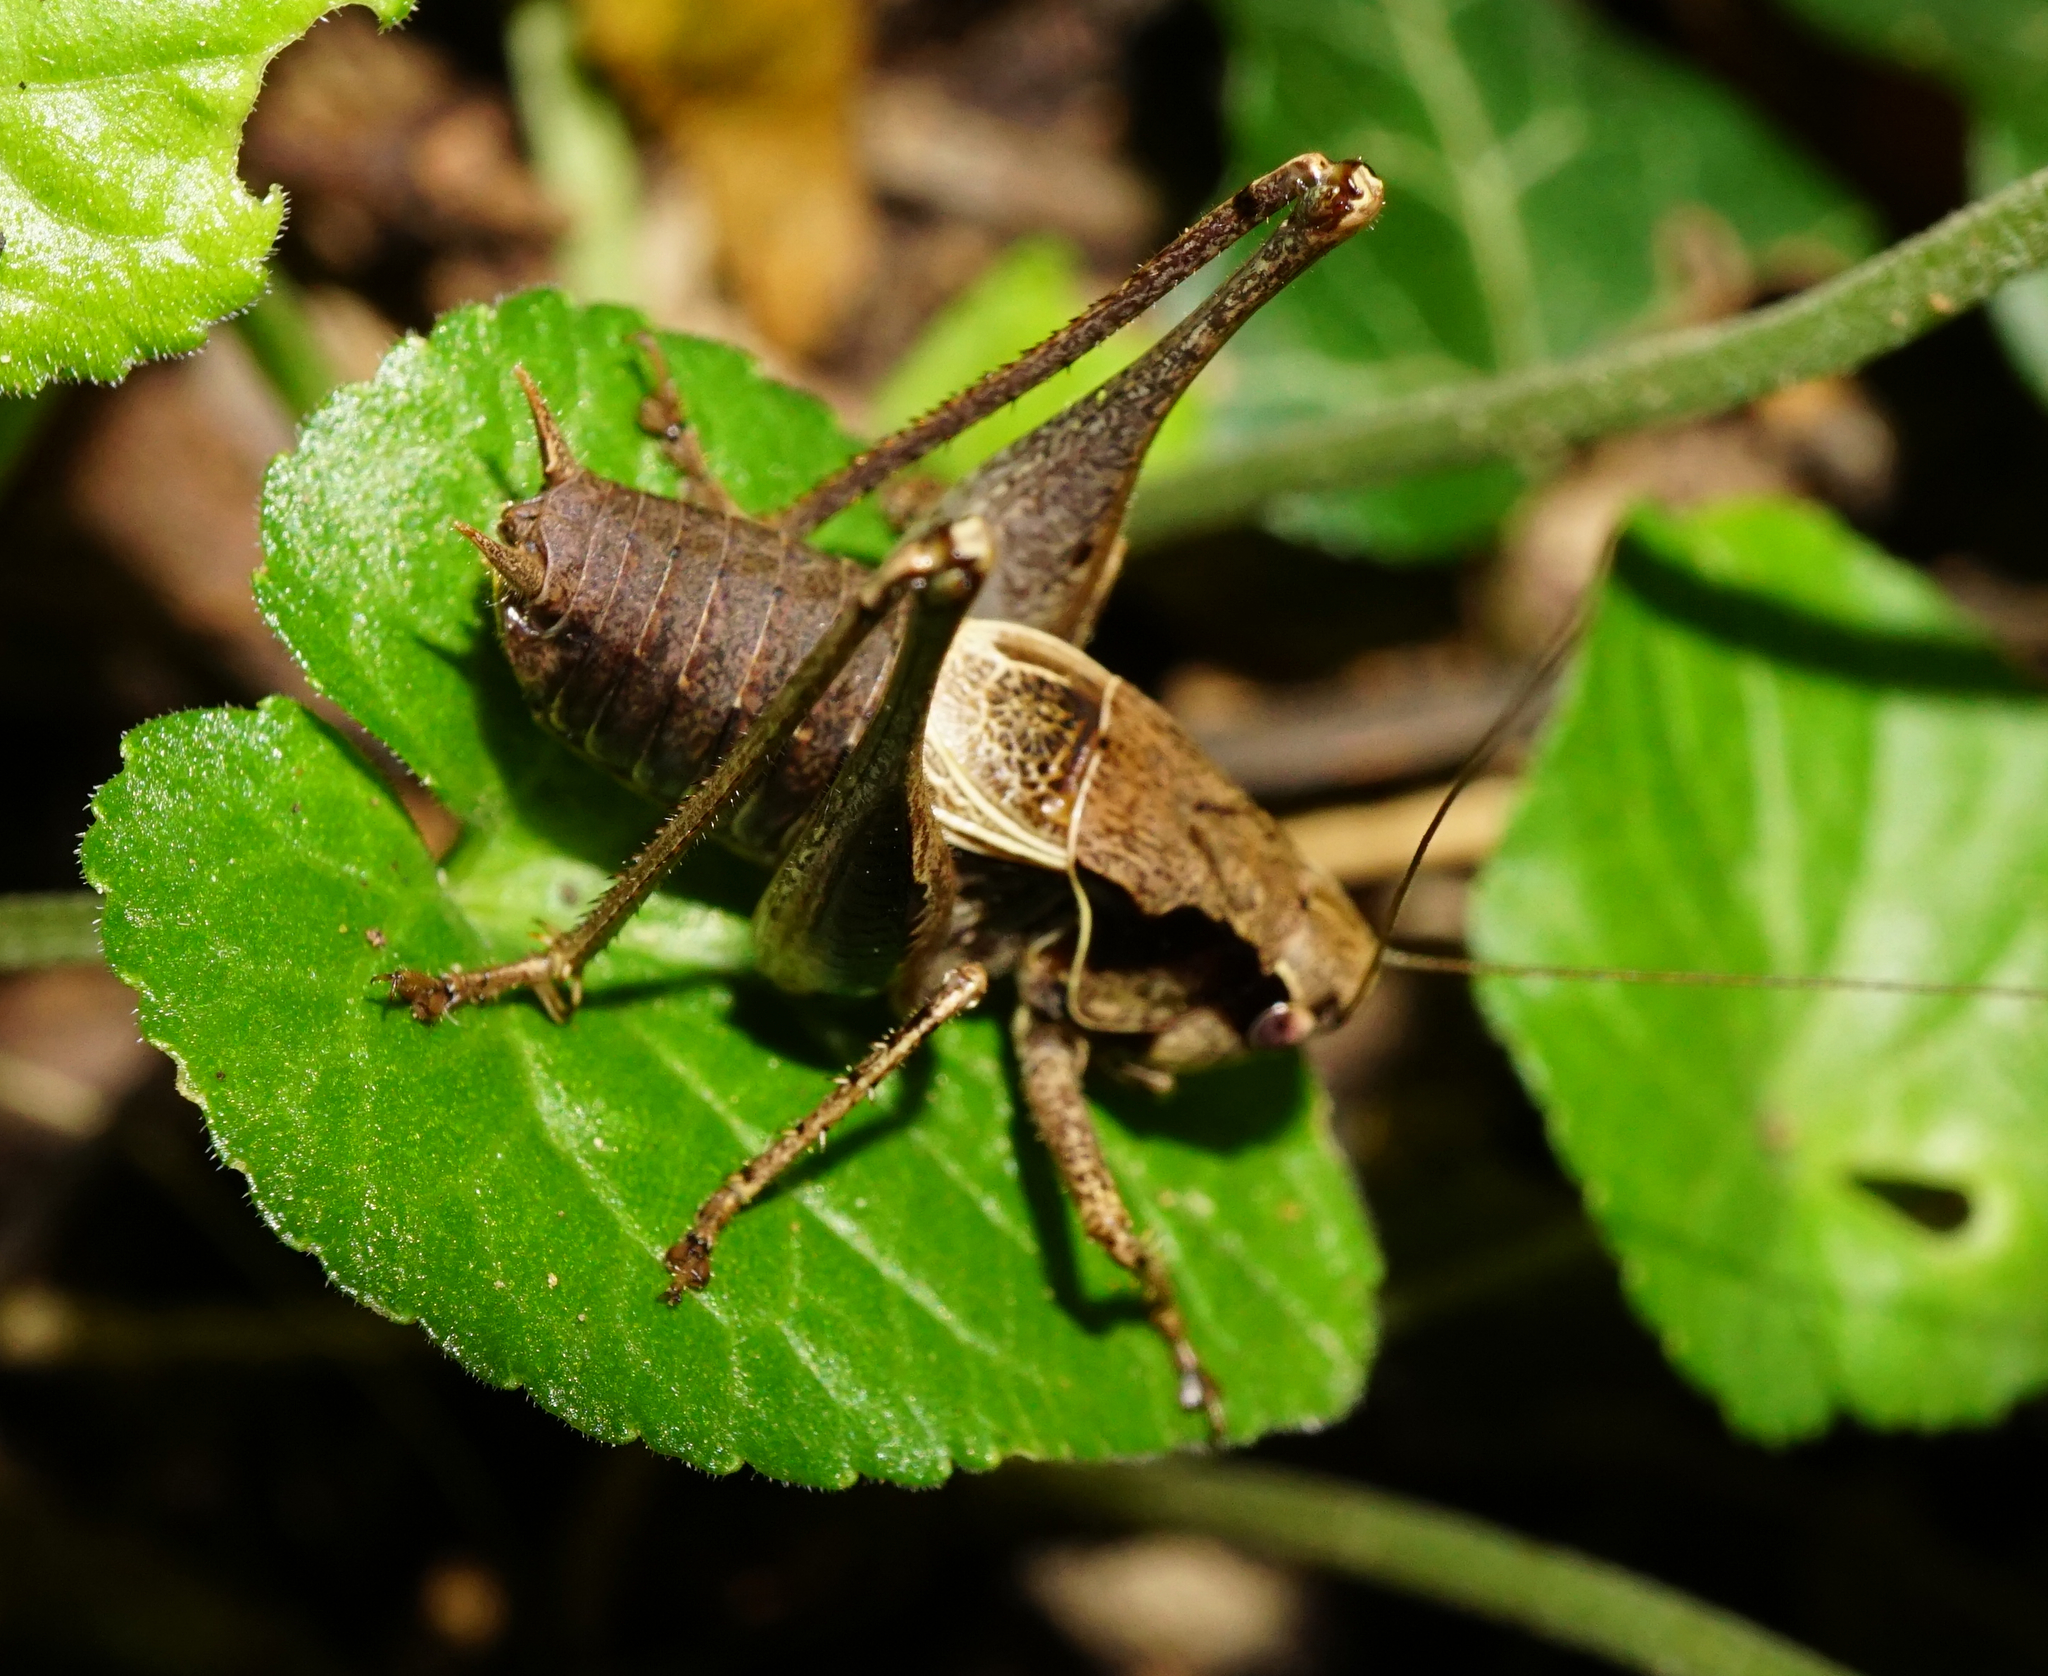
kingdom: Animalia
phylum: Arthropoda
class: Insecta
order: Orthoptera
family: Tettigoniidae
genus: Pholidoptera
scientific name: Pholidoptera griseoaptera
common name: Dark bush-cricket
